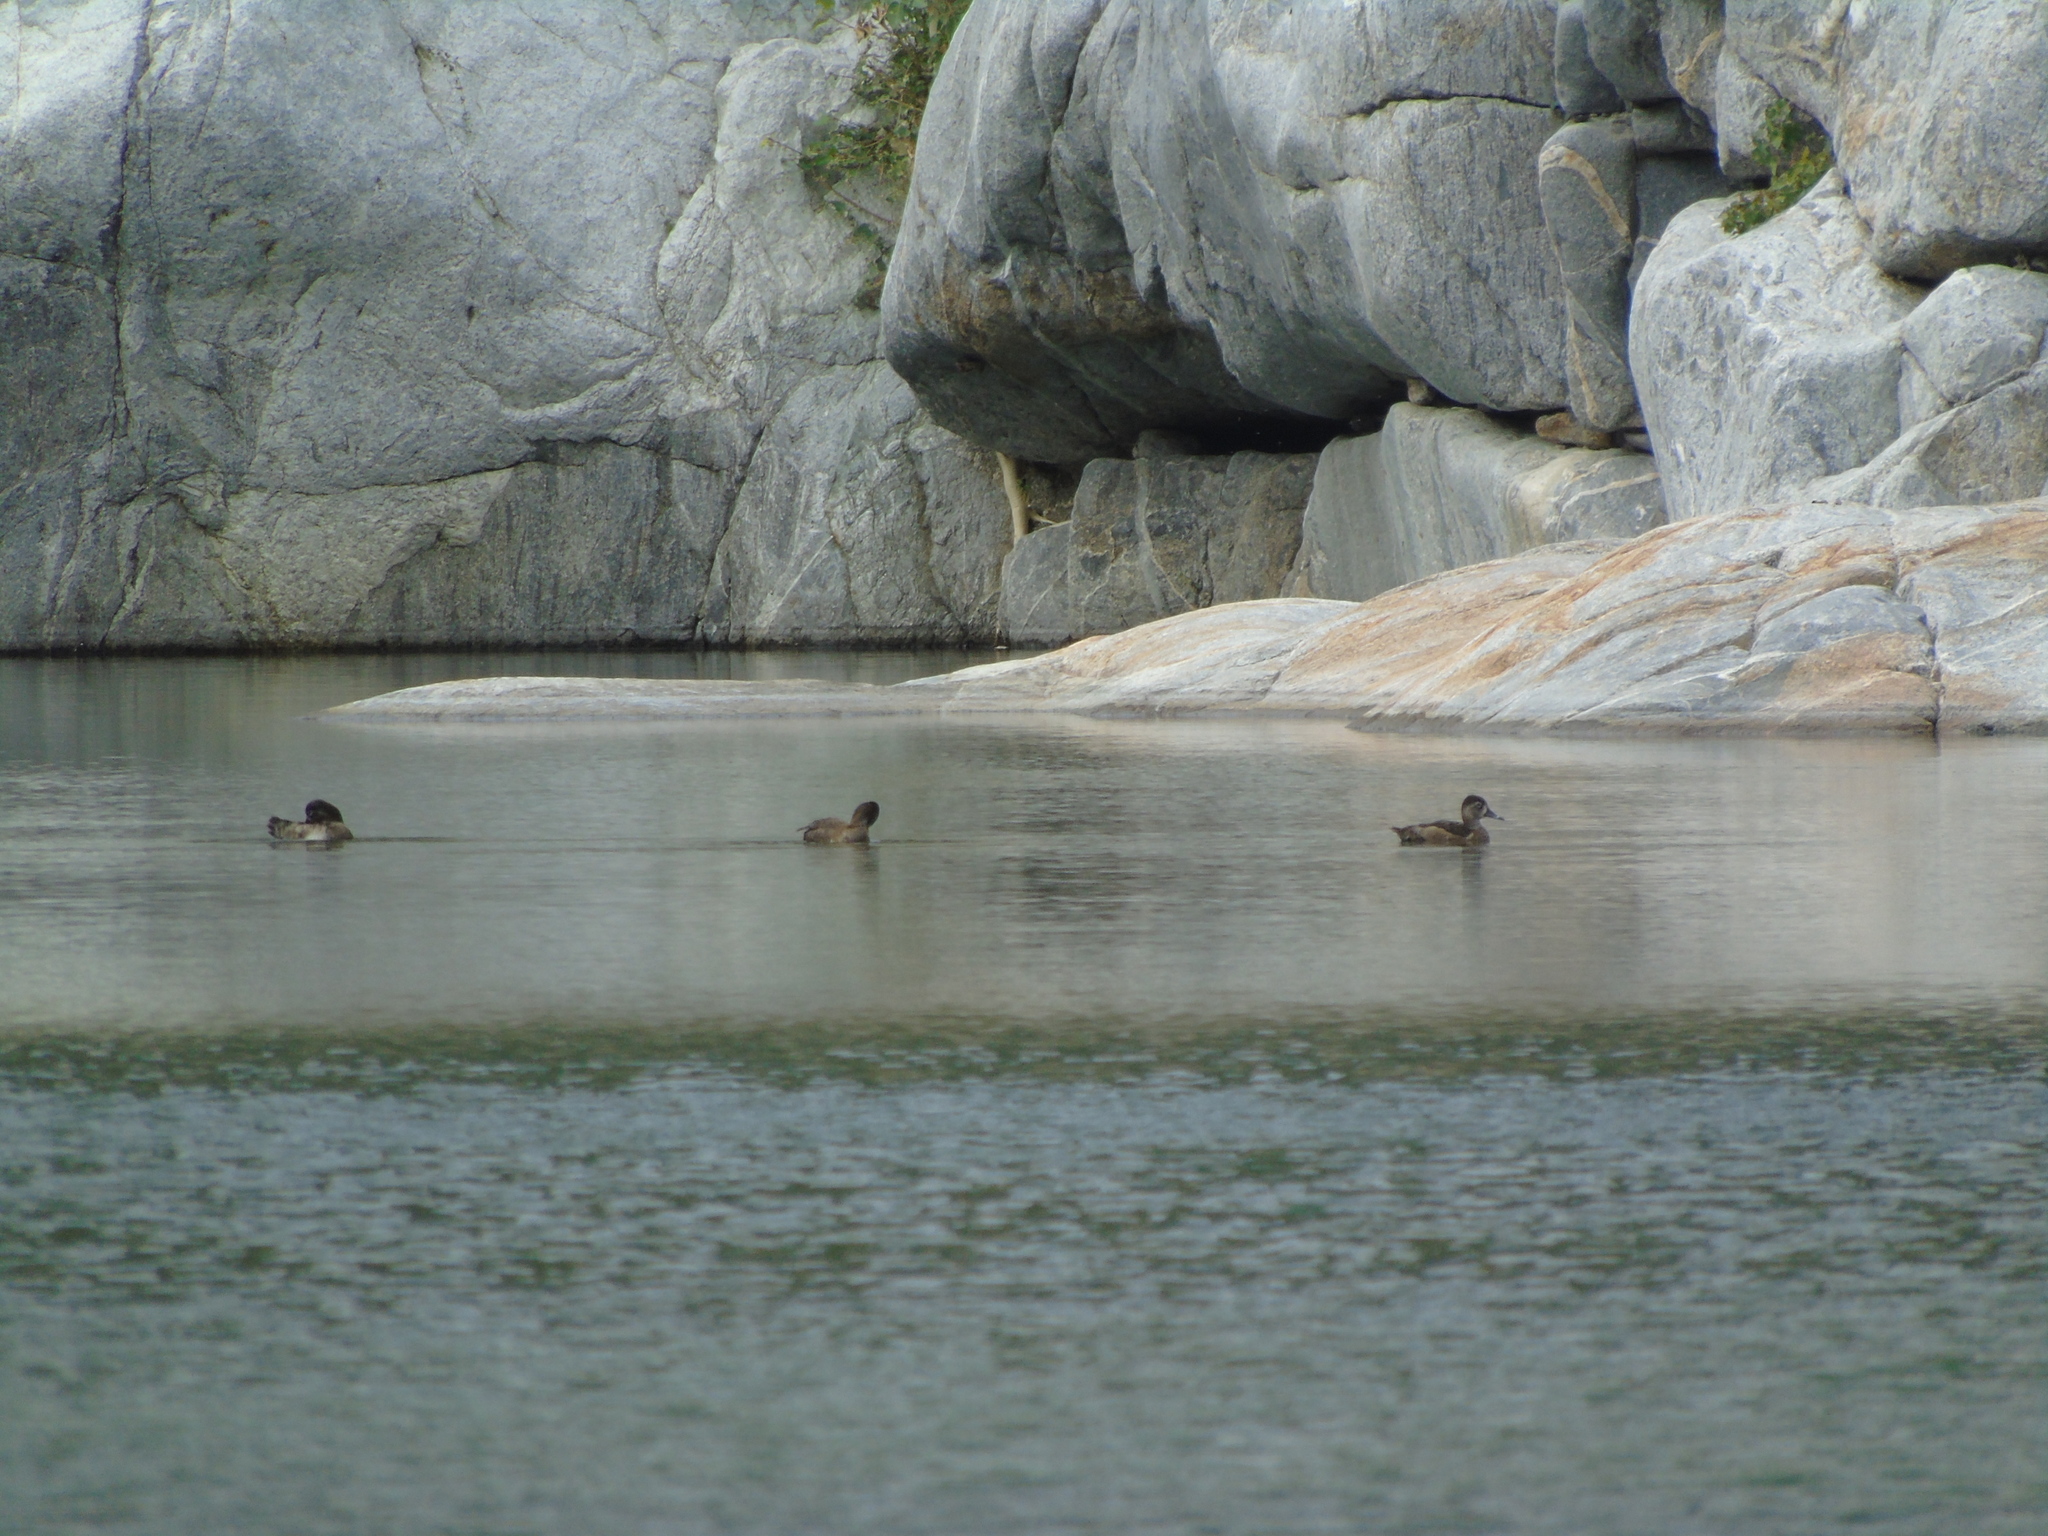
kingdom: Animalia
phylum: Chordata
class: Aves
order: Anseriformes
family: Anatidae
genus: Aythya
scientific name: Aythya collaris
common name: Ring-necked duck
